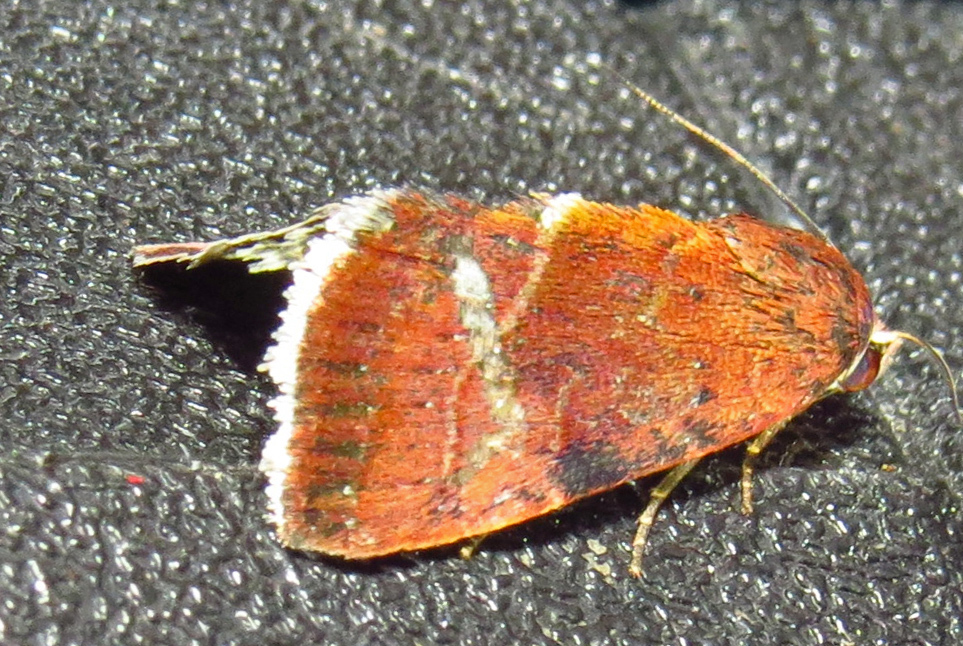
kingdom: Animalia
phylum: Arthropoda
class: Insecta
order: Lepidoptera
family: Noctuidae
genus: Galgula
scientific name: Galgula partita
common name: Wedgeling
